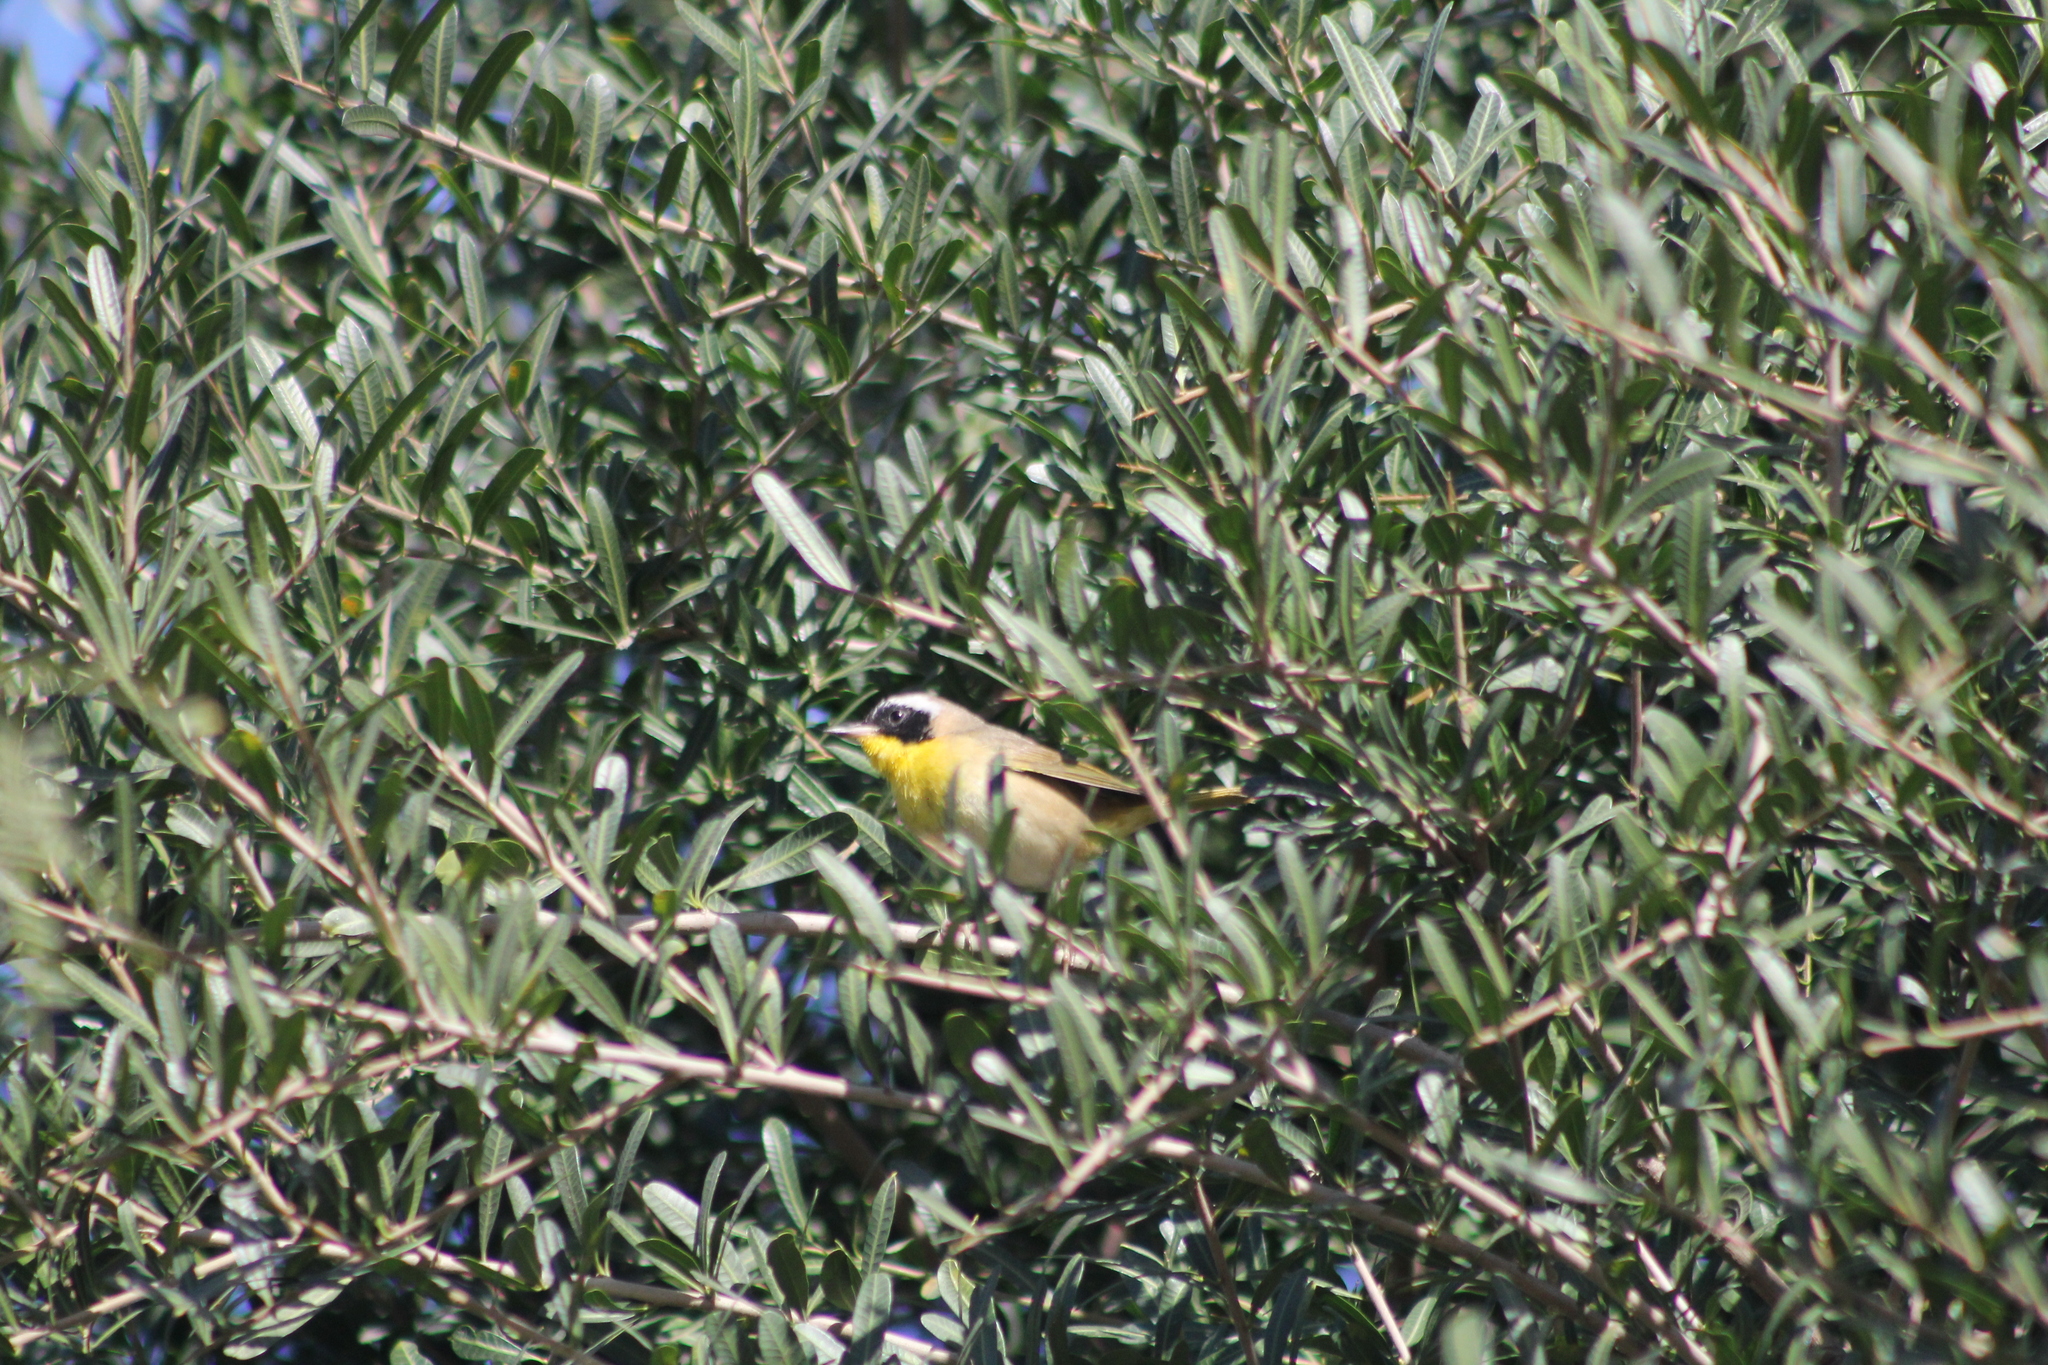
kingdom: Animalia
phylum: Chordata
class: Aves
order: Passeriformes
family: Parulidae
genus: Geothlypis
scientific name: Geothlypis trichas
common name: Common yellowthroat
